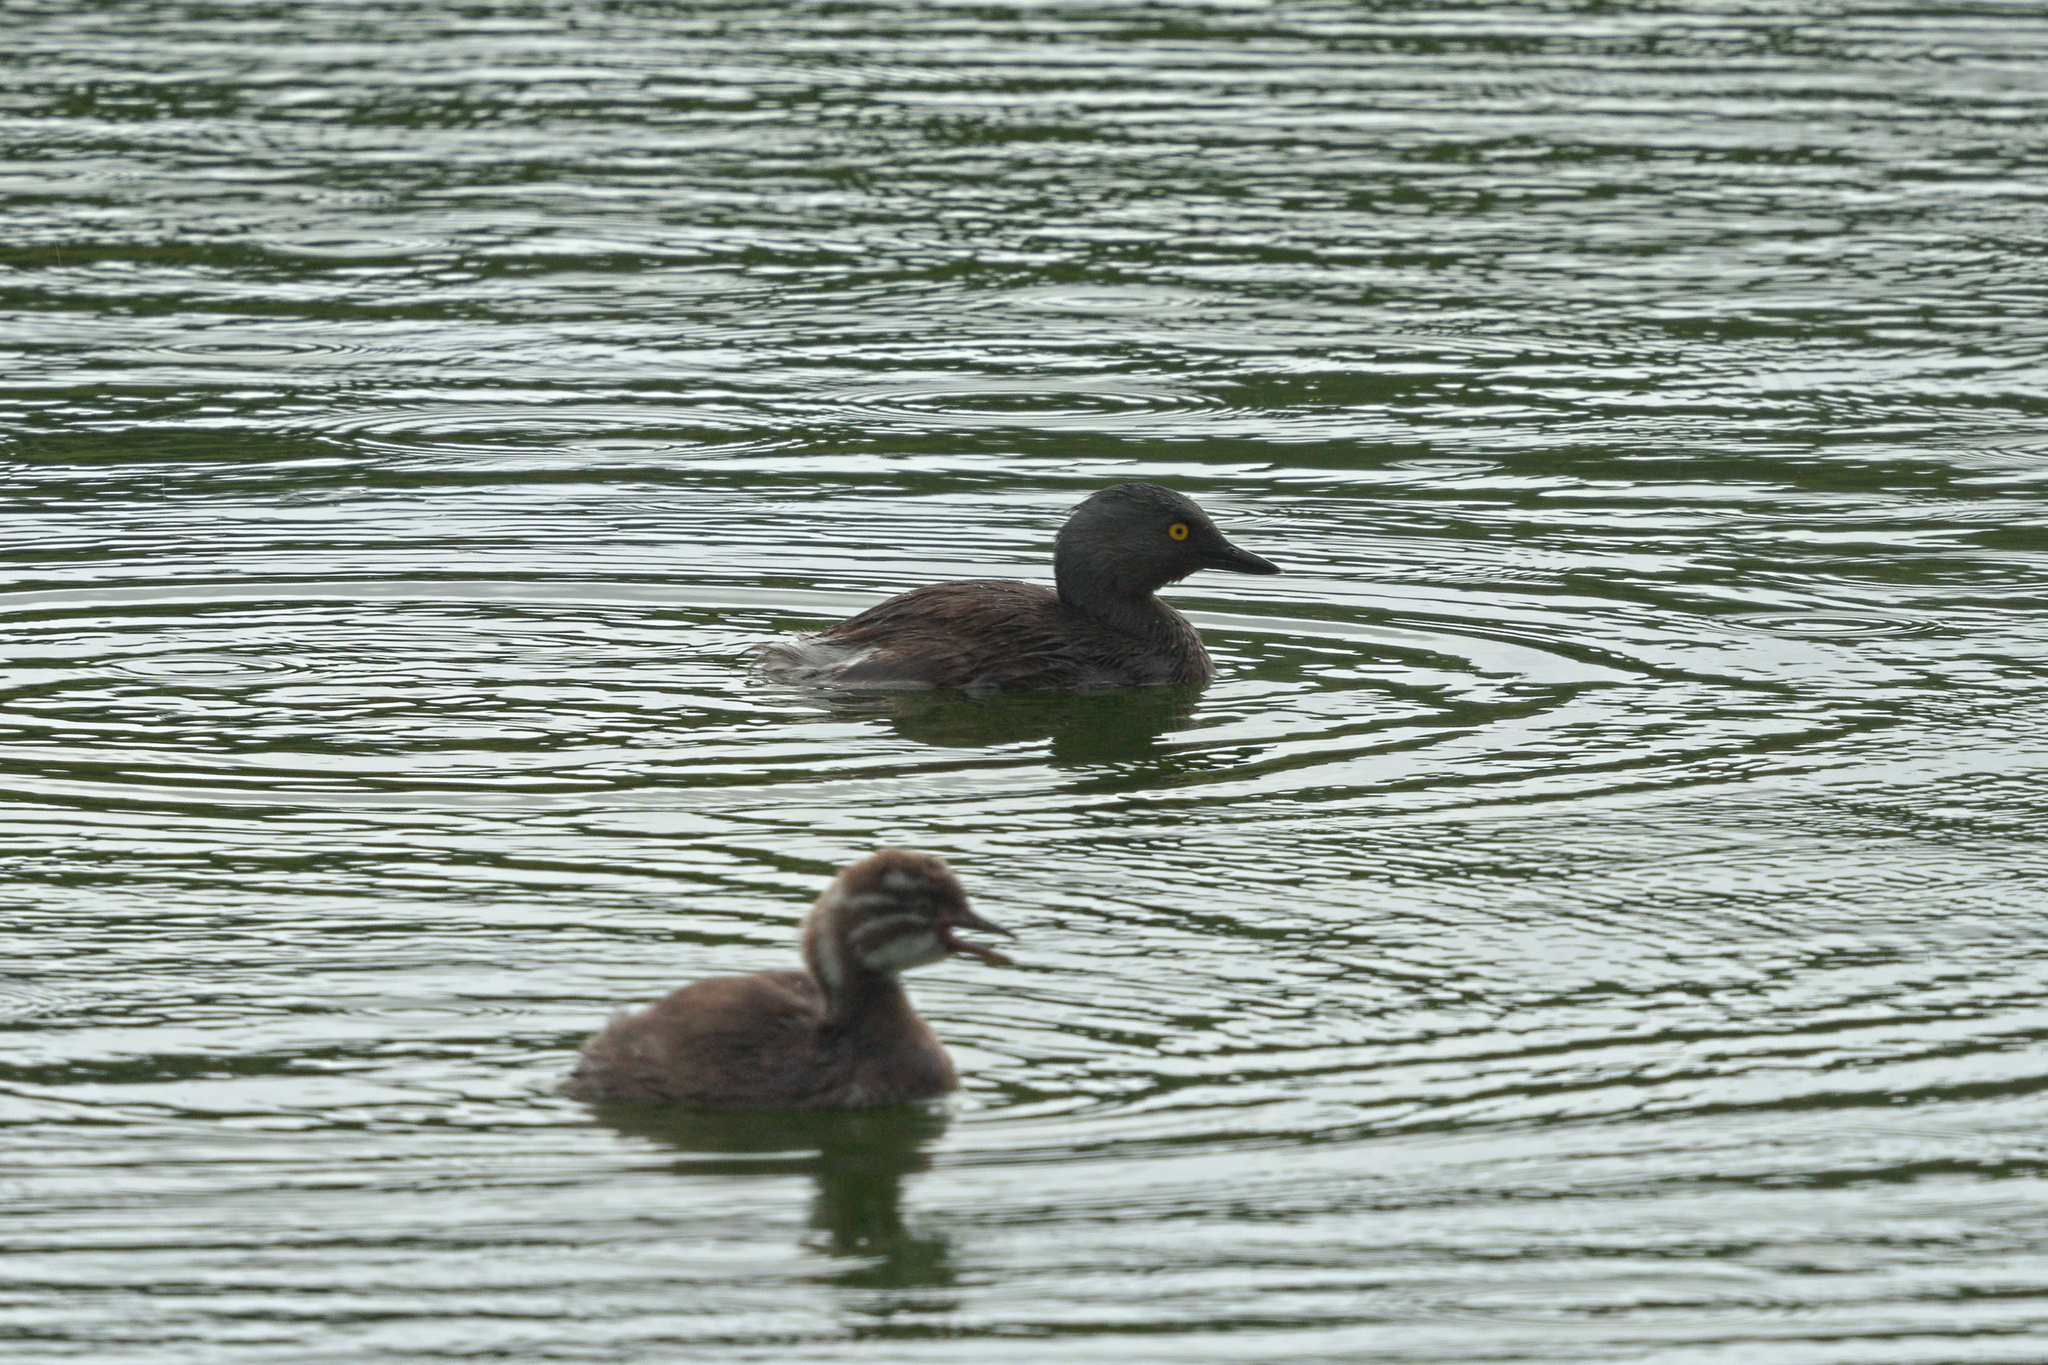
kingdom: Animalia
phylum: Chordata
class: Aves
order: Podicipediformes
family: Podicipedidae
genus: Tachybaptus
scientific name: Tachybaptus dominicus
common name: Least grebe
